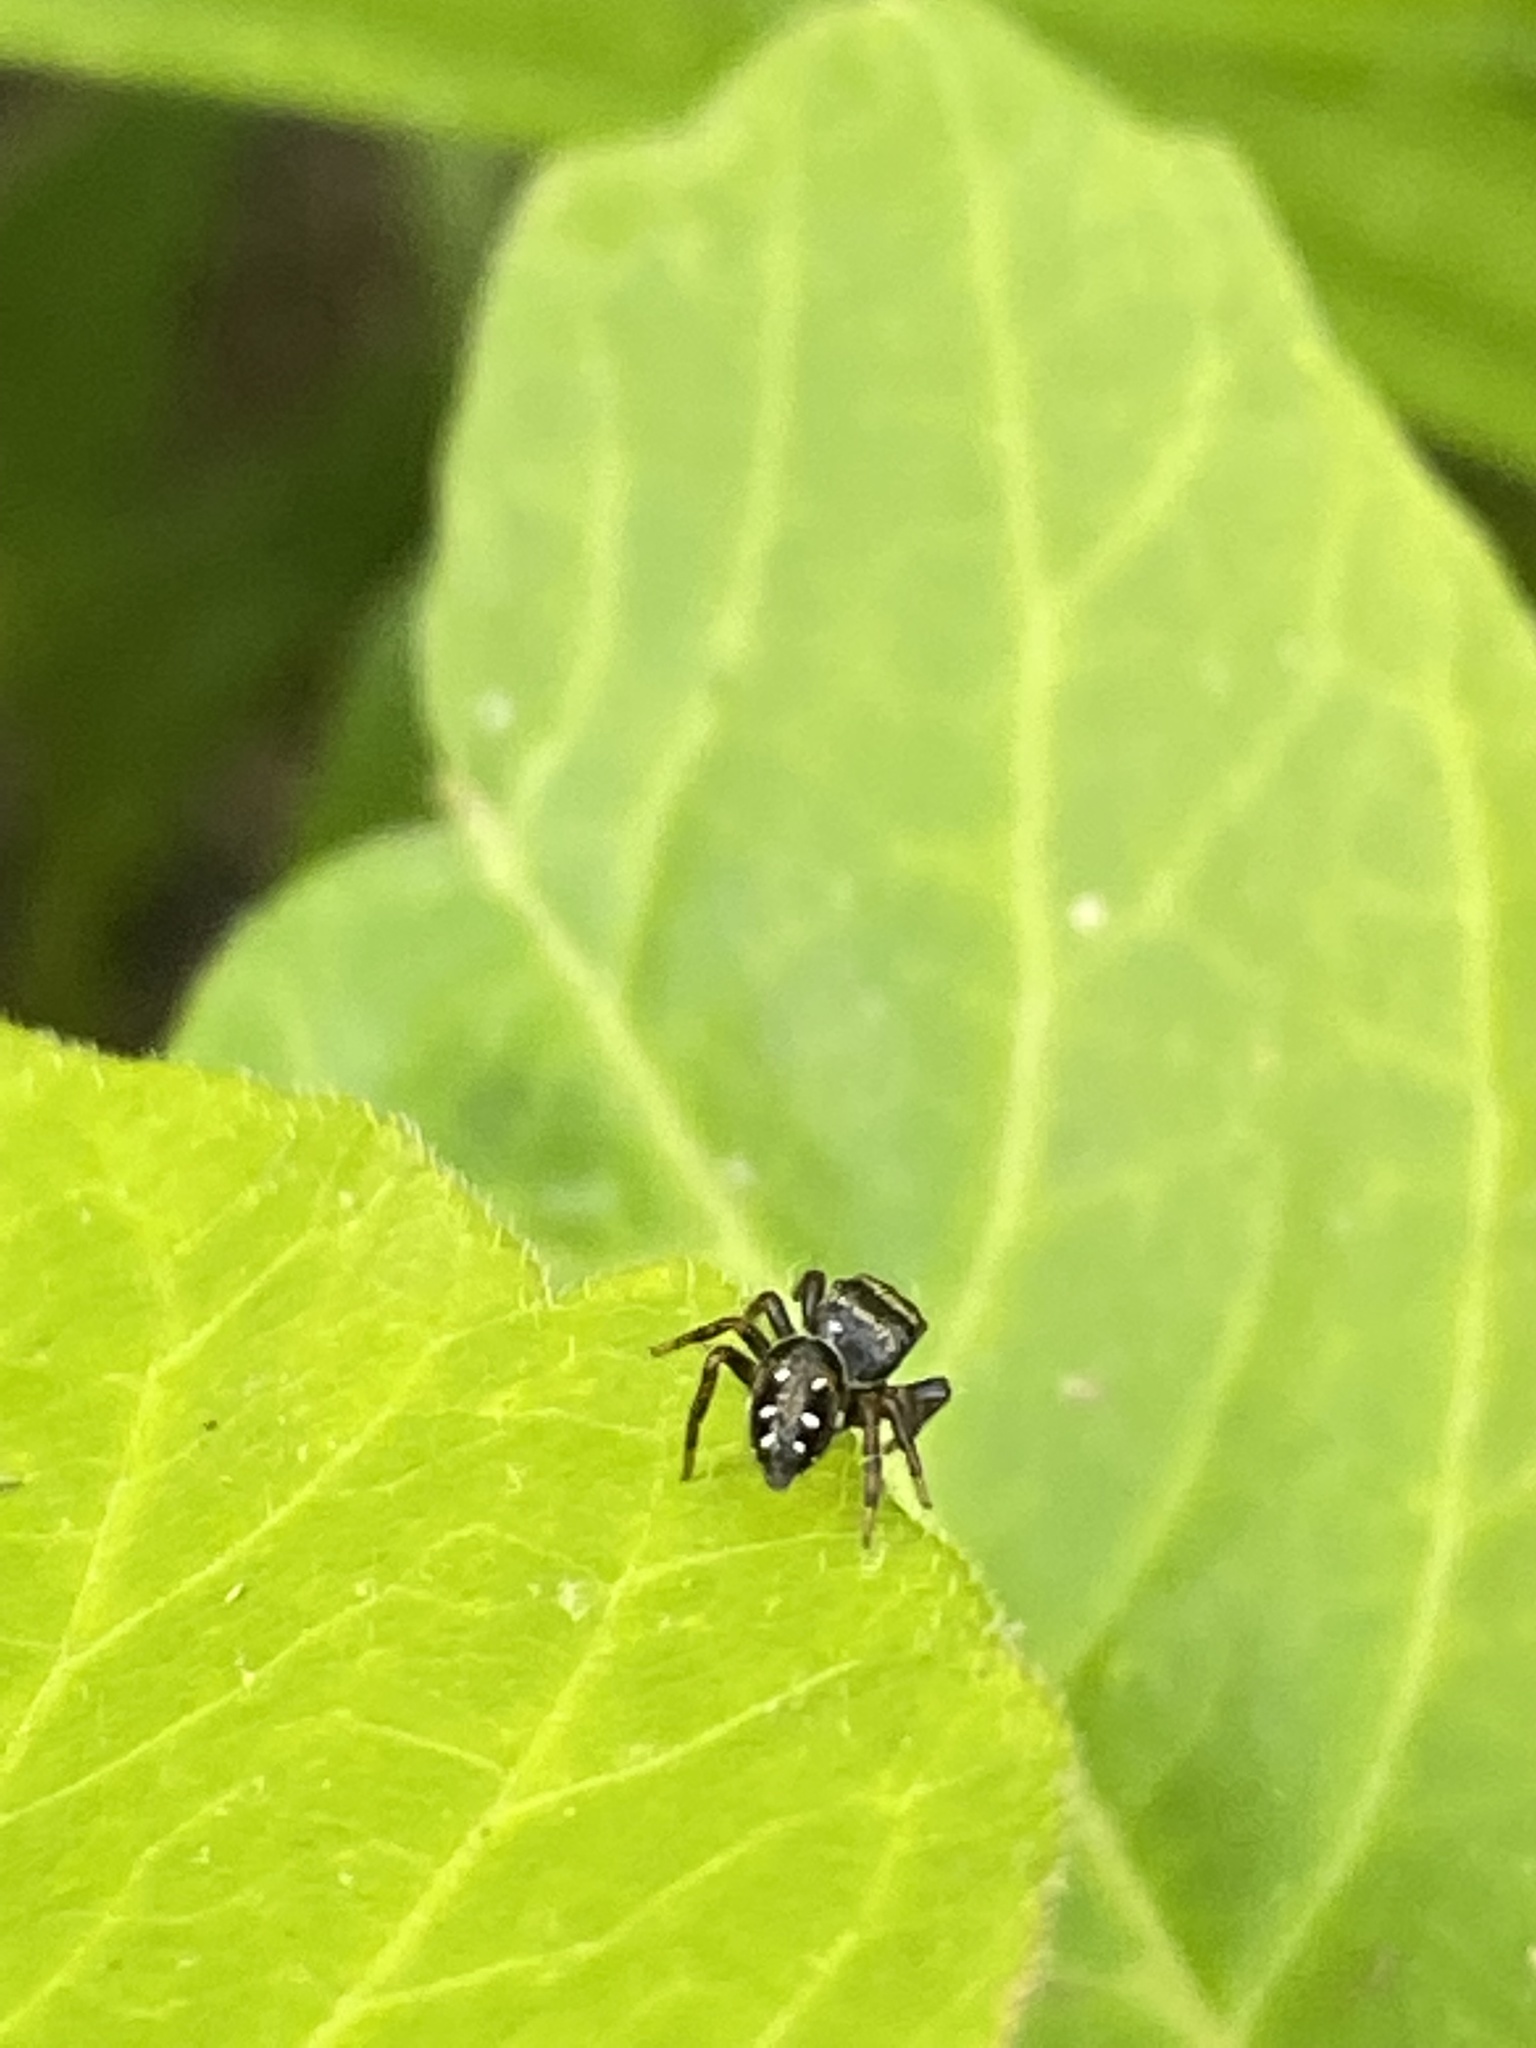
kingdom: Animalia
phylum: Arthropoda
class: Arachnida
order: Araneae
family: Salticidae
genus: Phidippus
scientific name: Phidippus clarus
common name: Brilliant jumping spider
